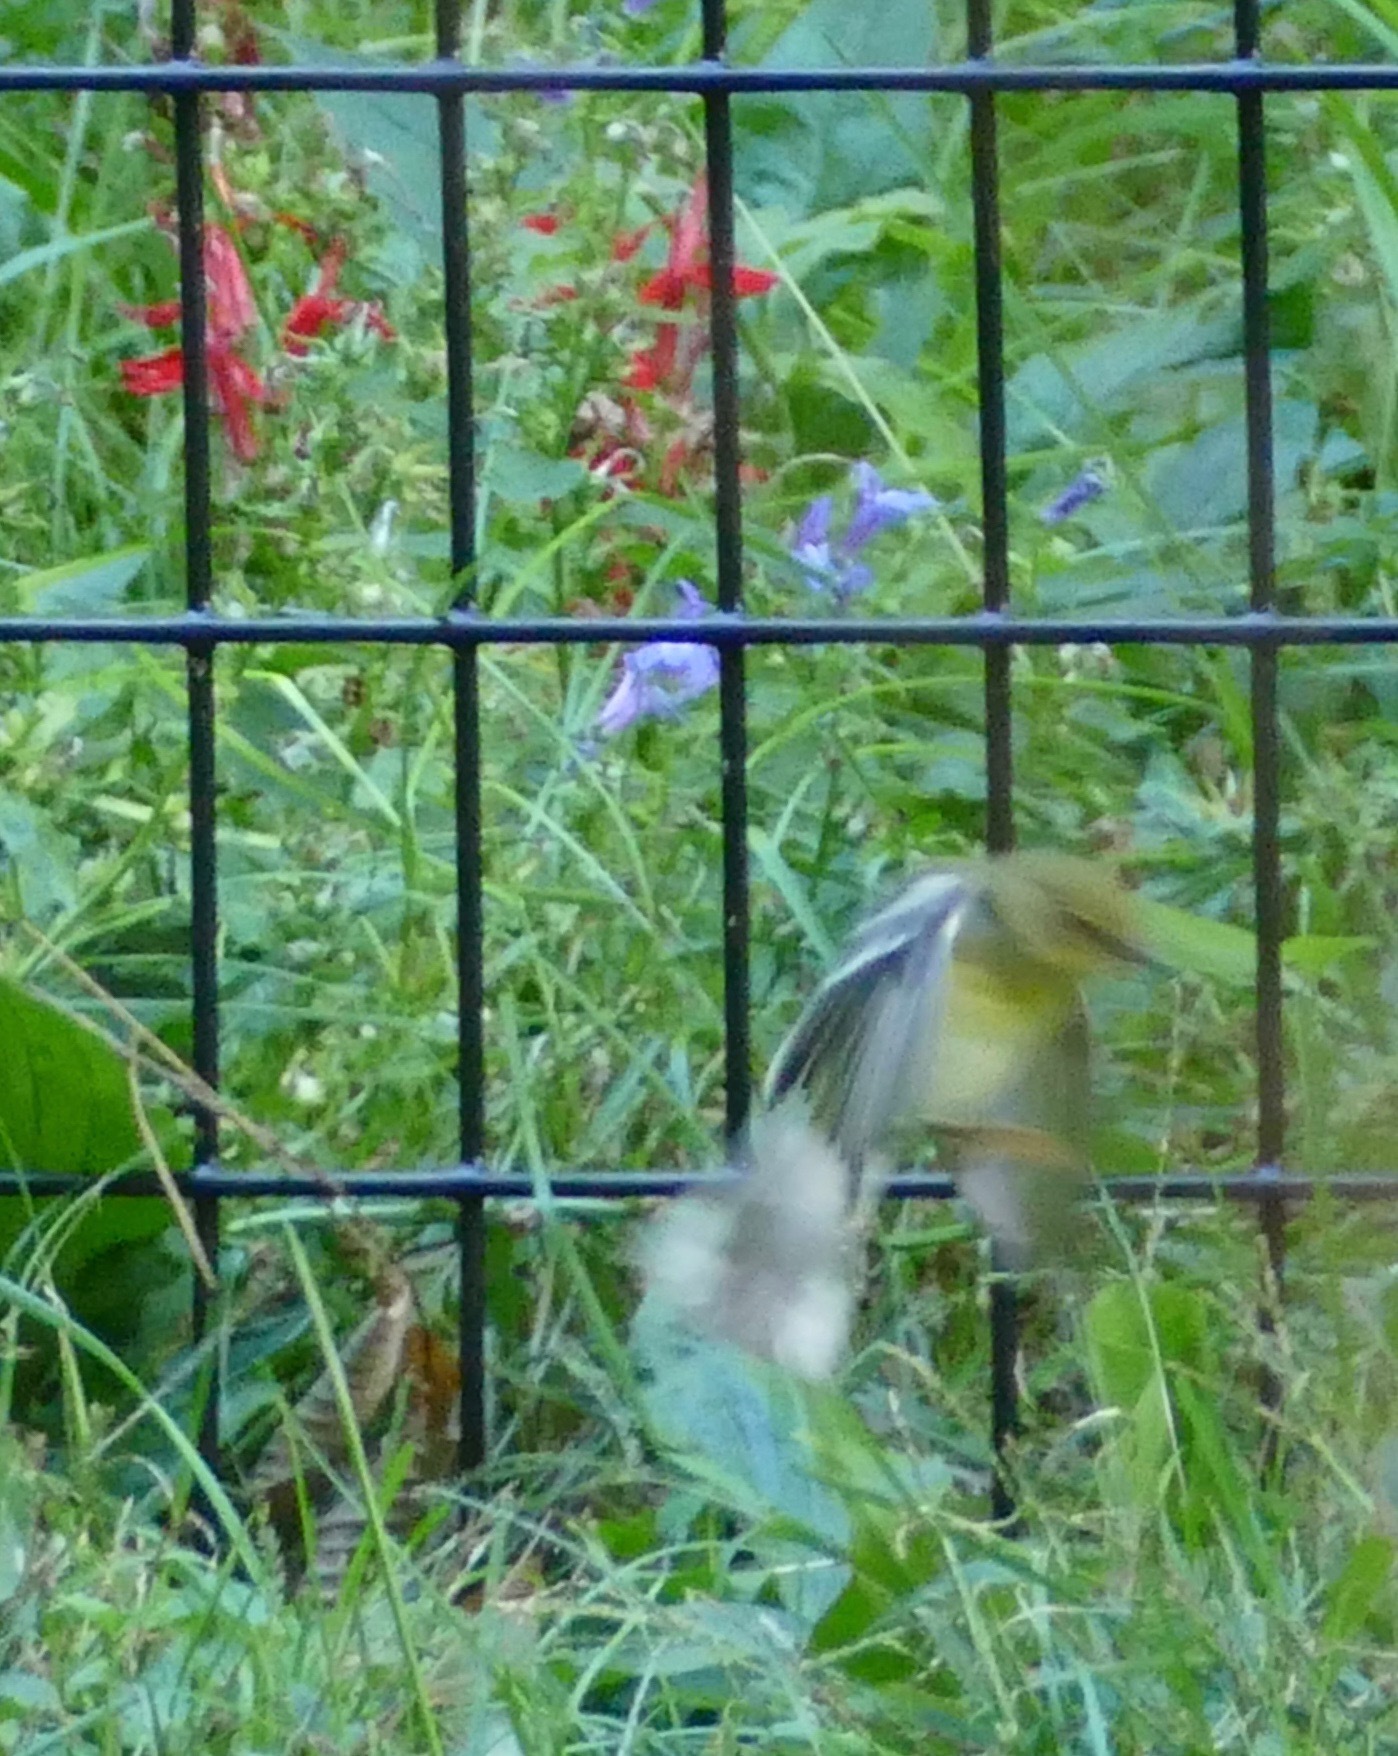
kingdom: Animalia
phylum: Chordata
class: Aves
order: Passeriformes
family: Parulidae
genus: Setophaga
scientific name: Setophaga striata
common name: Blackpoll warbler
